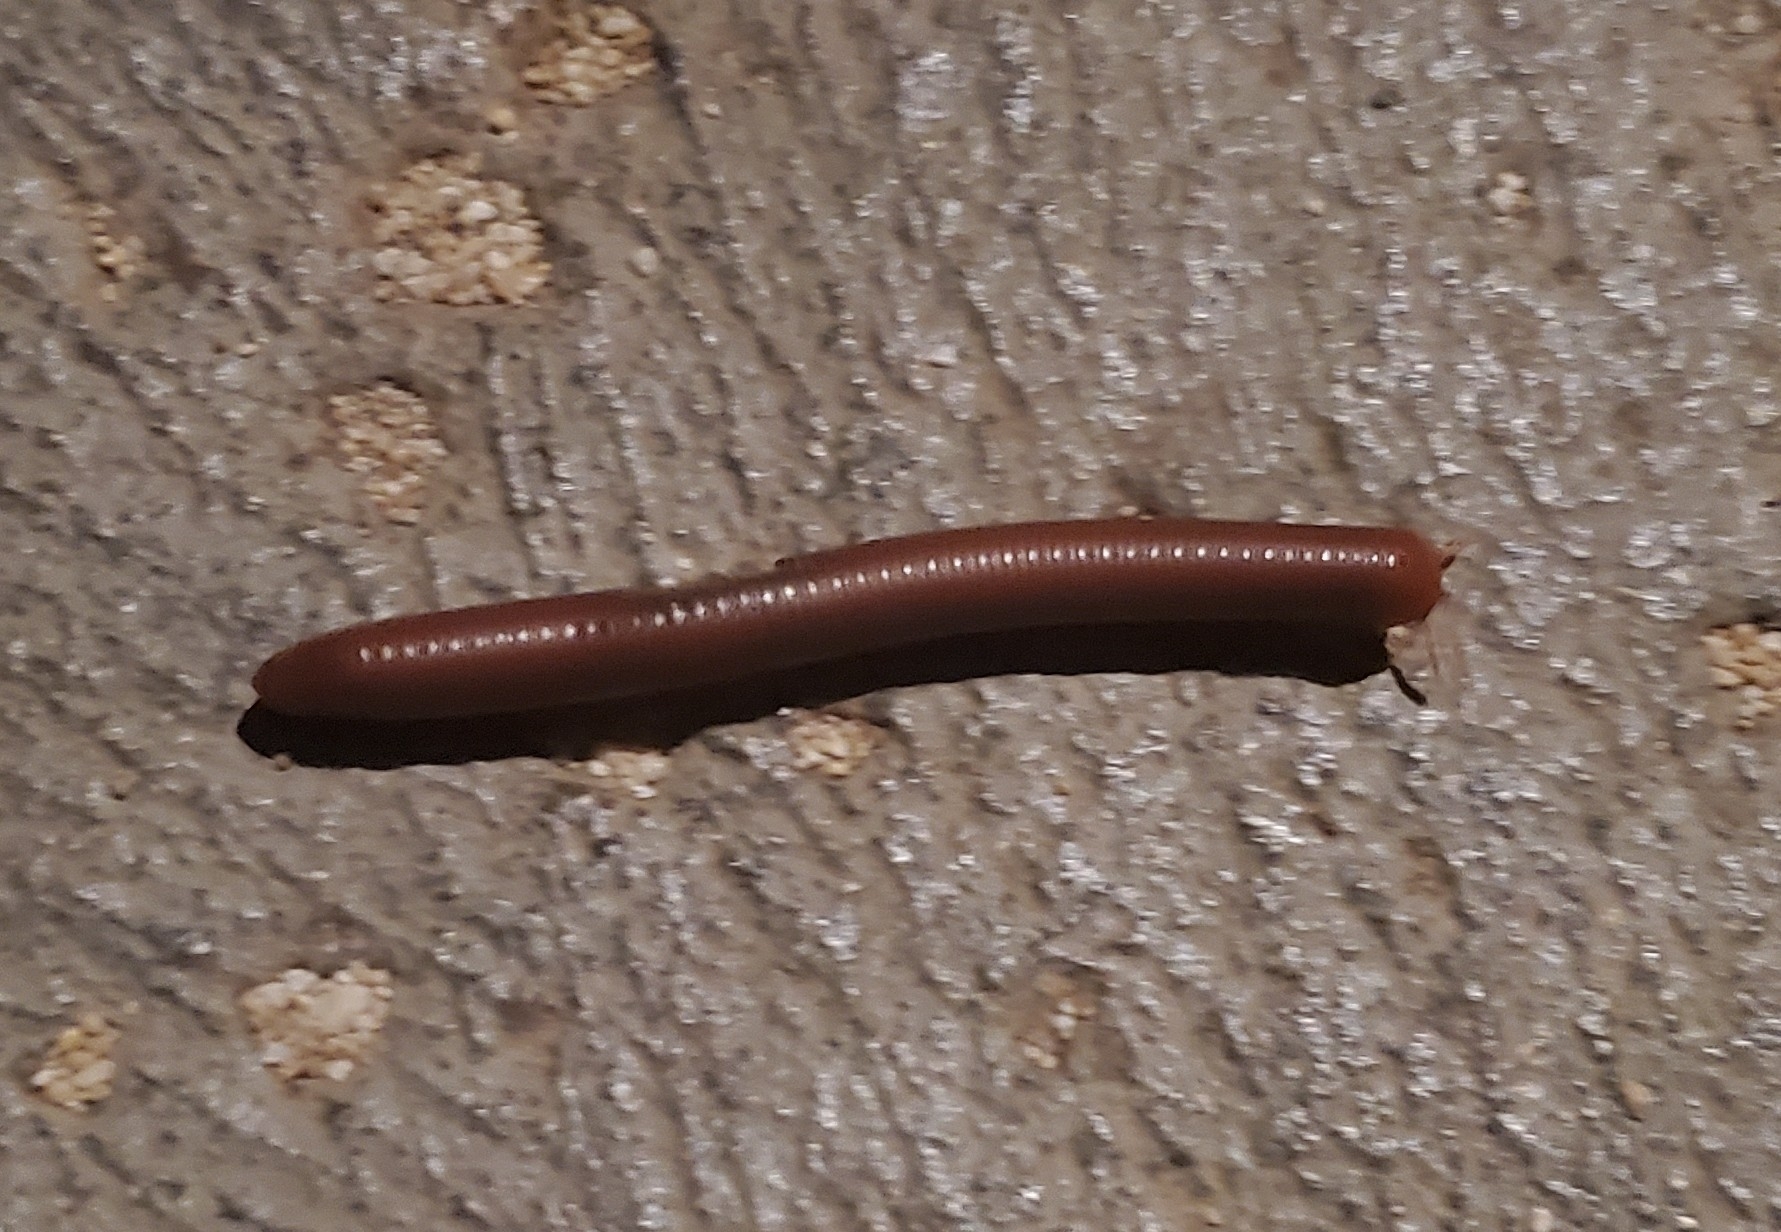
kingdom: Animalia
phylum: Arthropoda
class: Diplopoda
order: Spirobolida
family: Pachybolidae
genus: Trigoniulus
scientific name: Trigoniulus corallinus
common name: Millipede
